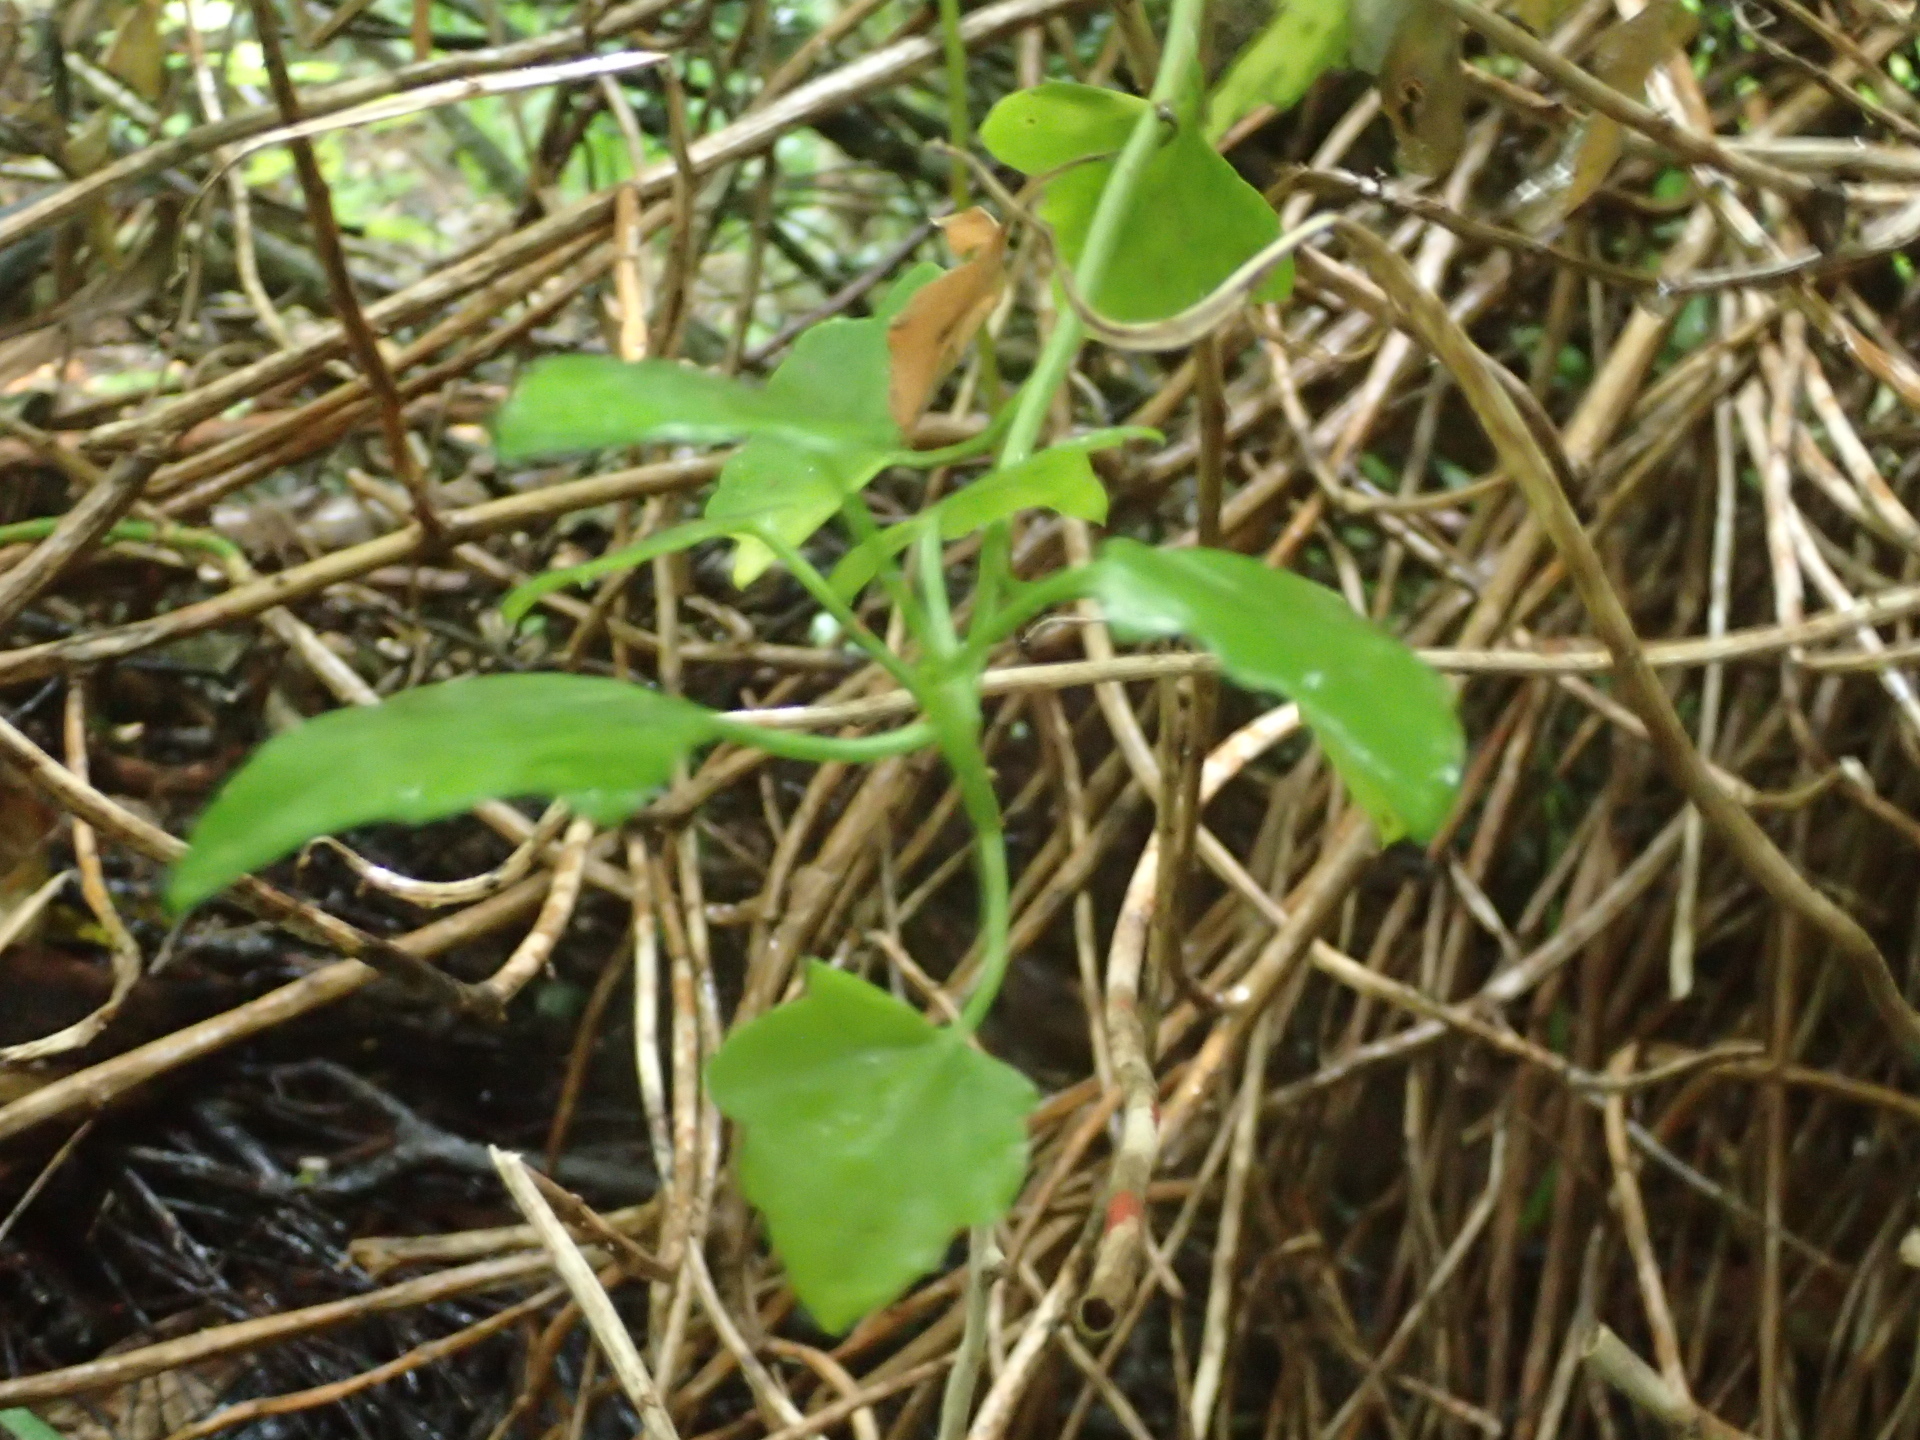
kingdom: Plantae
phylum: Tracheophyta
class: Magnoliopsida
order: Asterales
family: Asteraceae
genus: Senecio
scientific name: Senecio angulatus
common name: Climbing groundsel
